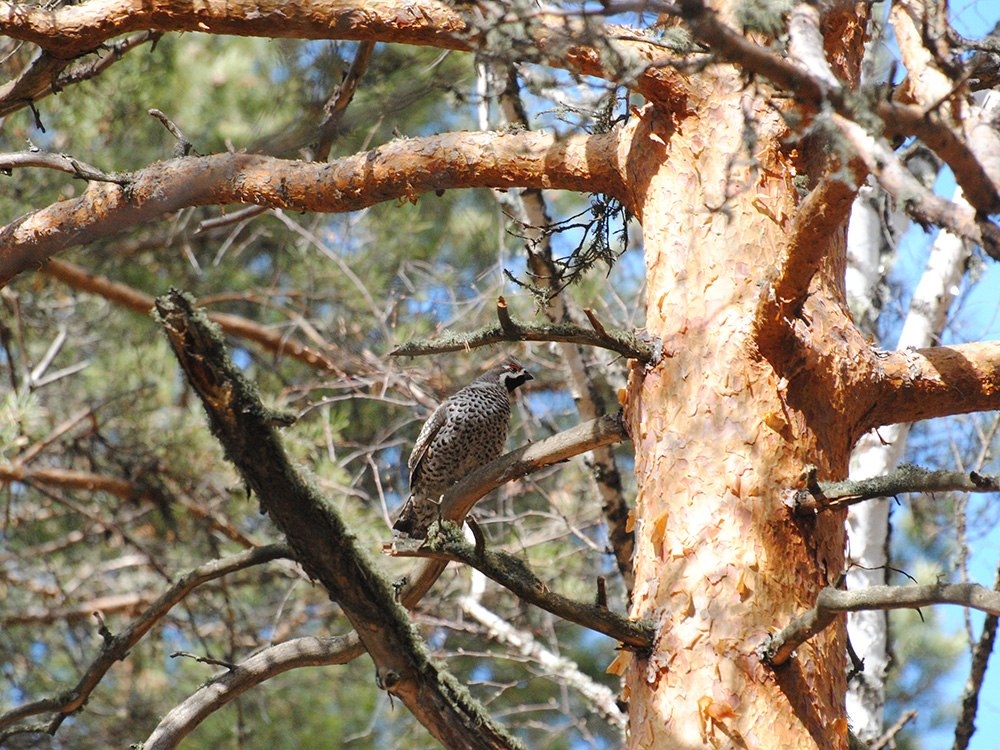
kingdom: Animalia
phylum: Chordata
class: Aves
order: Galliformes
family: Phasianidae
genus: Tetrastes
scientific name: Tetrastes bonasia
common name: Hazel grouse
